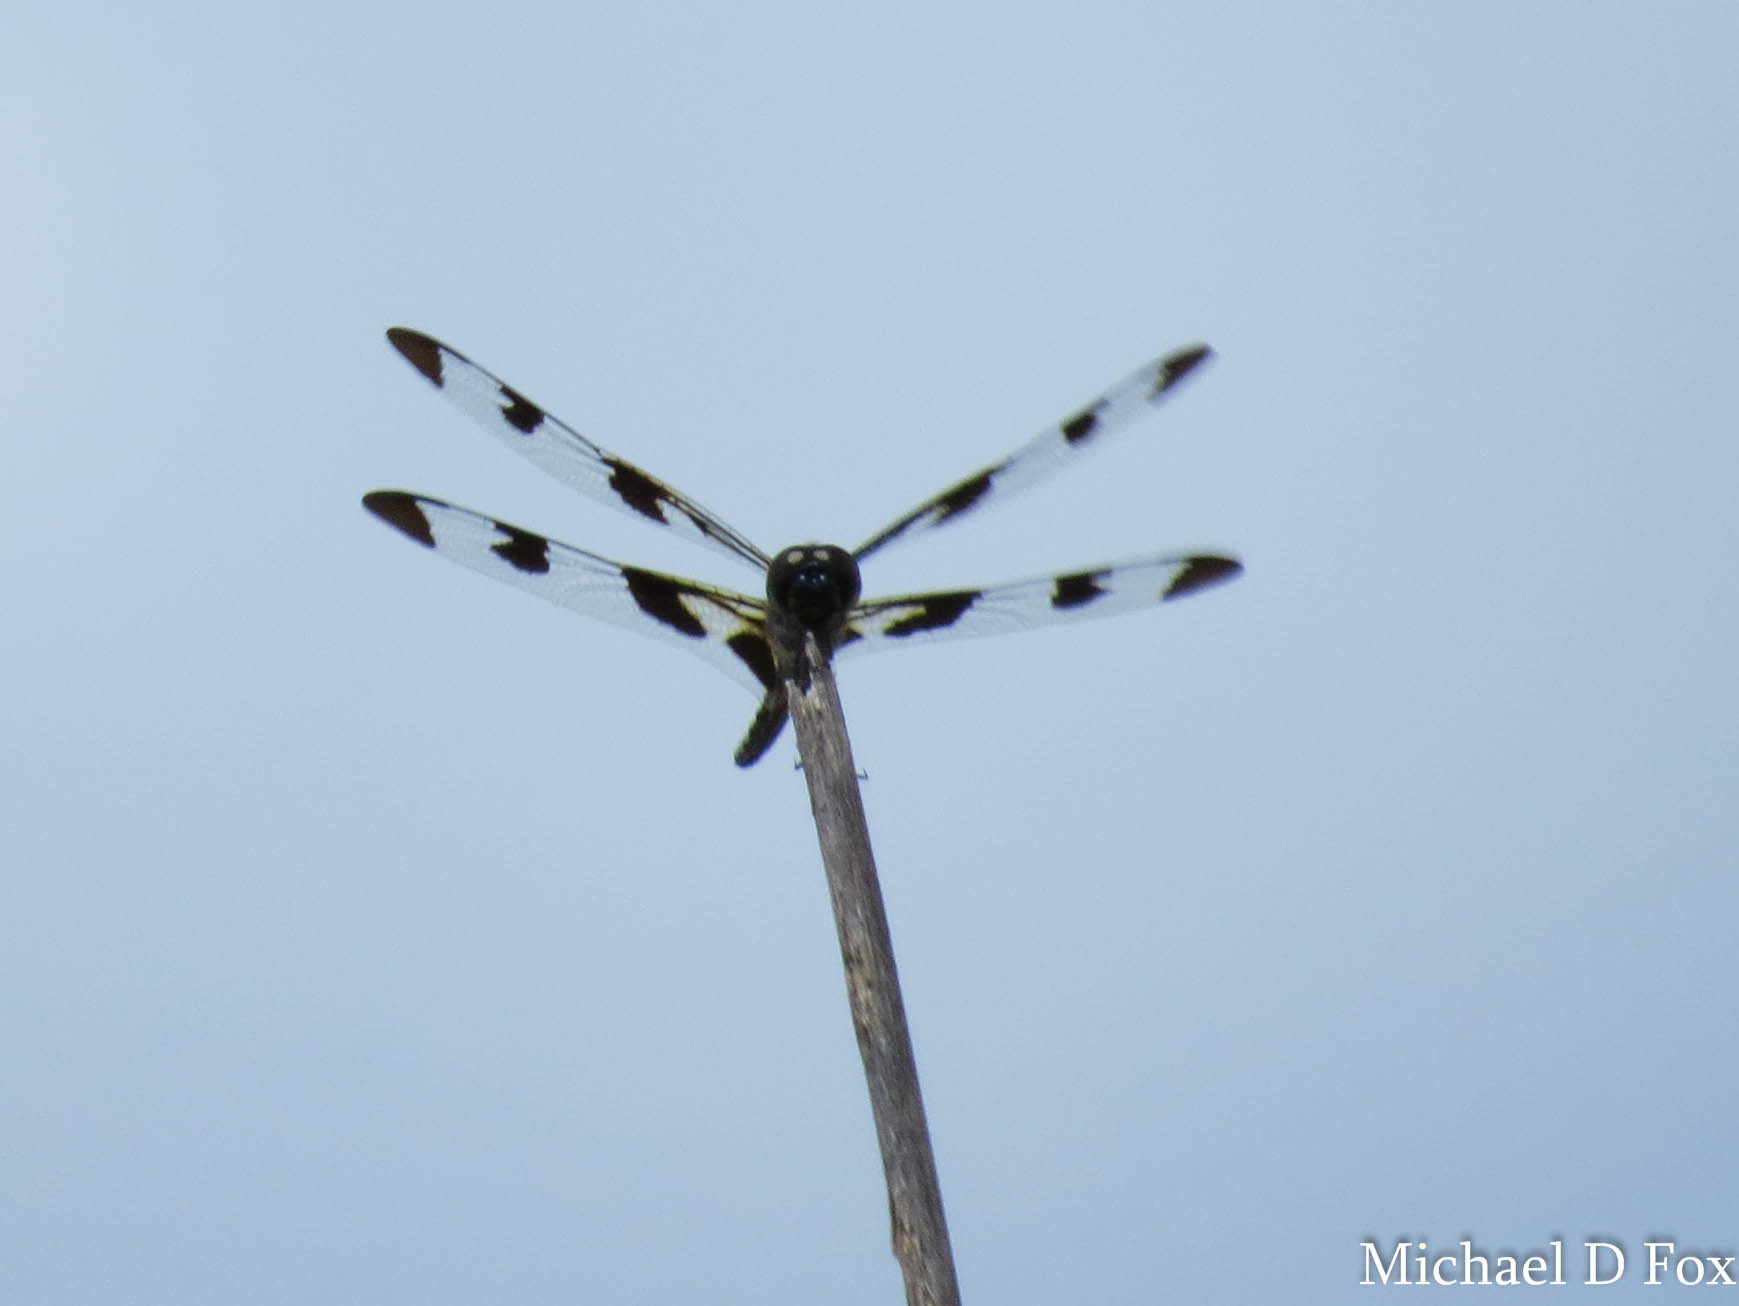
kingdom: Animalia
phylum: Arthropoda
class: Insecta
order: Odonata
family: Libellulidae
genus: Celithemis
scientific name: Celithemis fasciata
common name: Banded pennant
